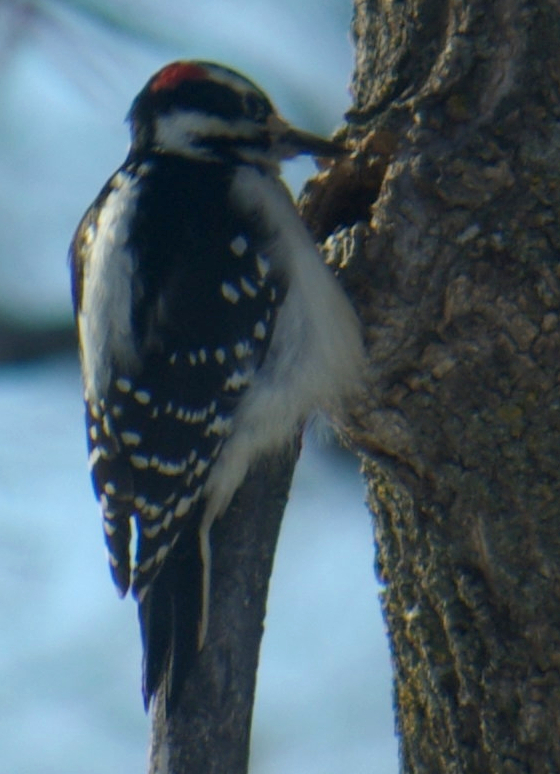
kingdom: Animalia
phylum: Chordata
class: Aves
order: Piciformes
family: Picidae
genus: Leuconotopicus
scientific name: Leuconotopicus villosus
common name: Hairy woodpecker
